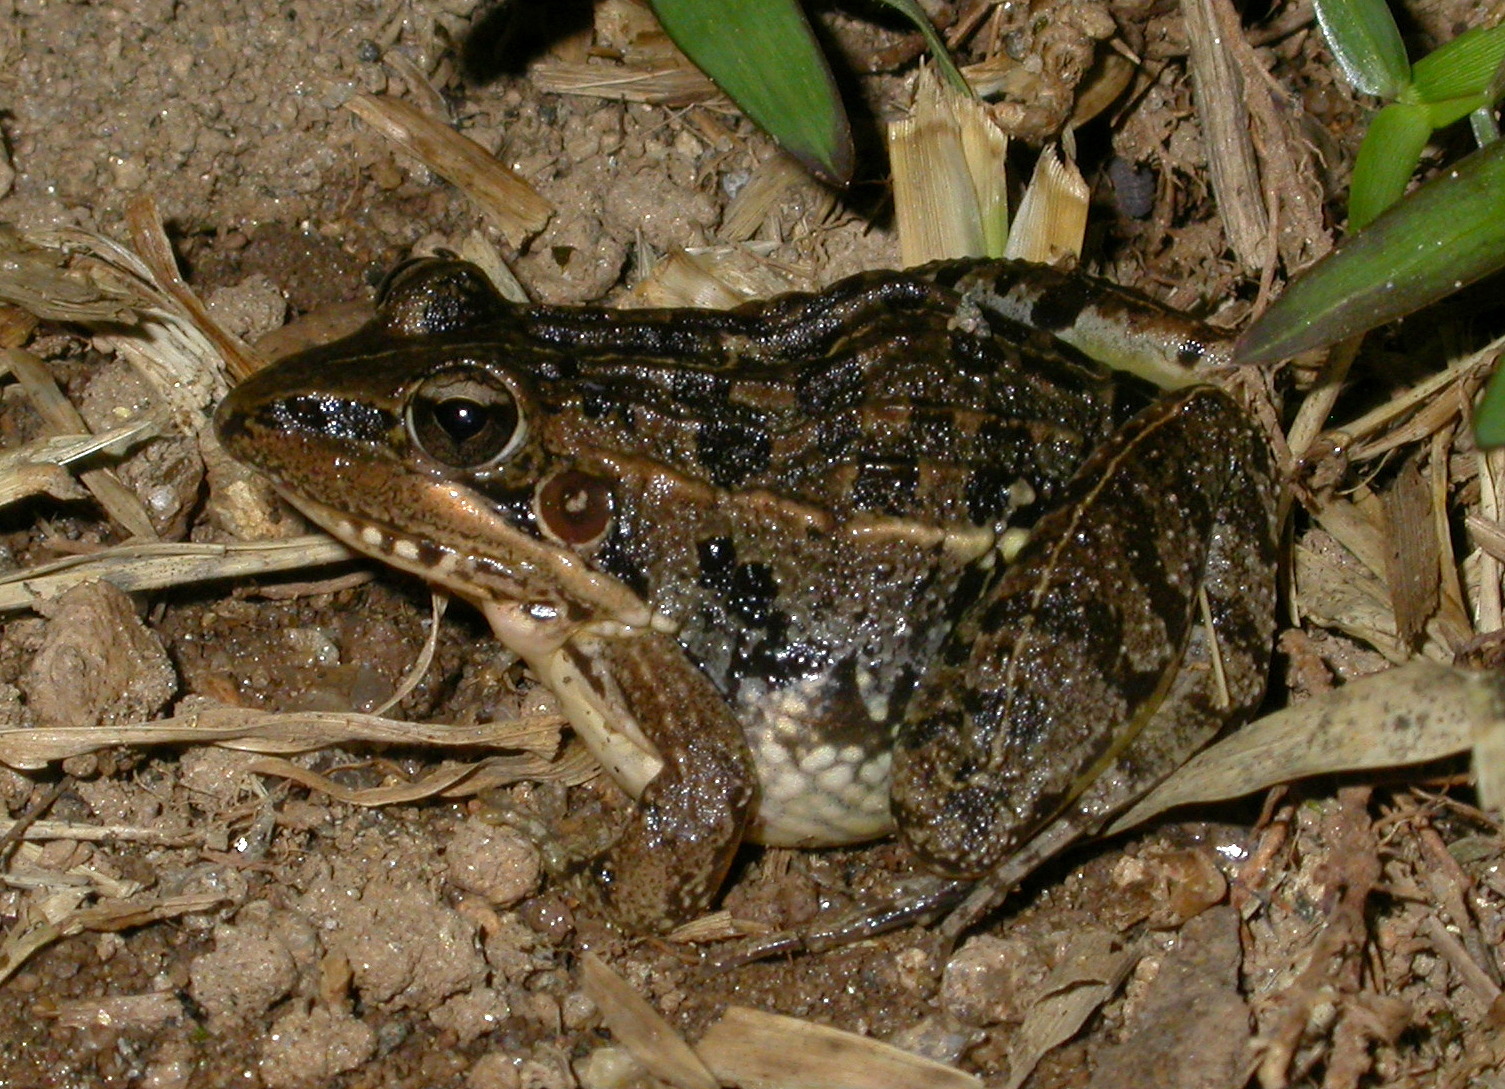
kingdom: Animalia
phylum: Chordata
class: Amphibia
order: Anura
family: Ptychadenidae
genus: Ptychadena
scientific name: Ptychadena mascareniensis
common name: Mascarene grass frog
